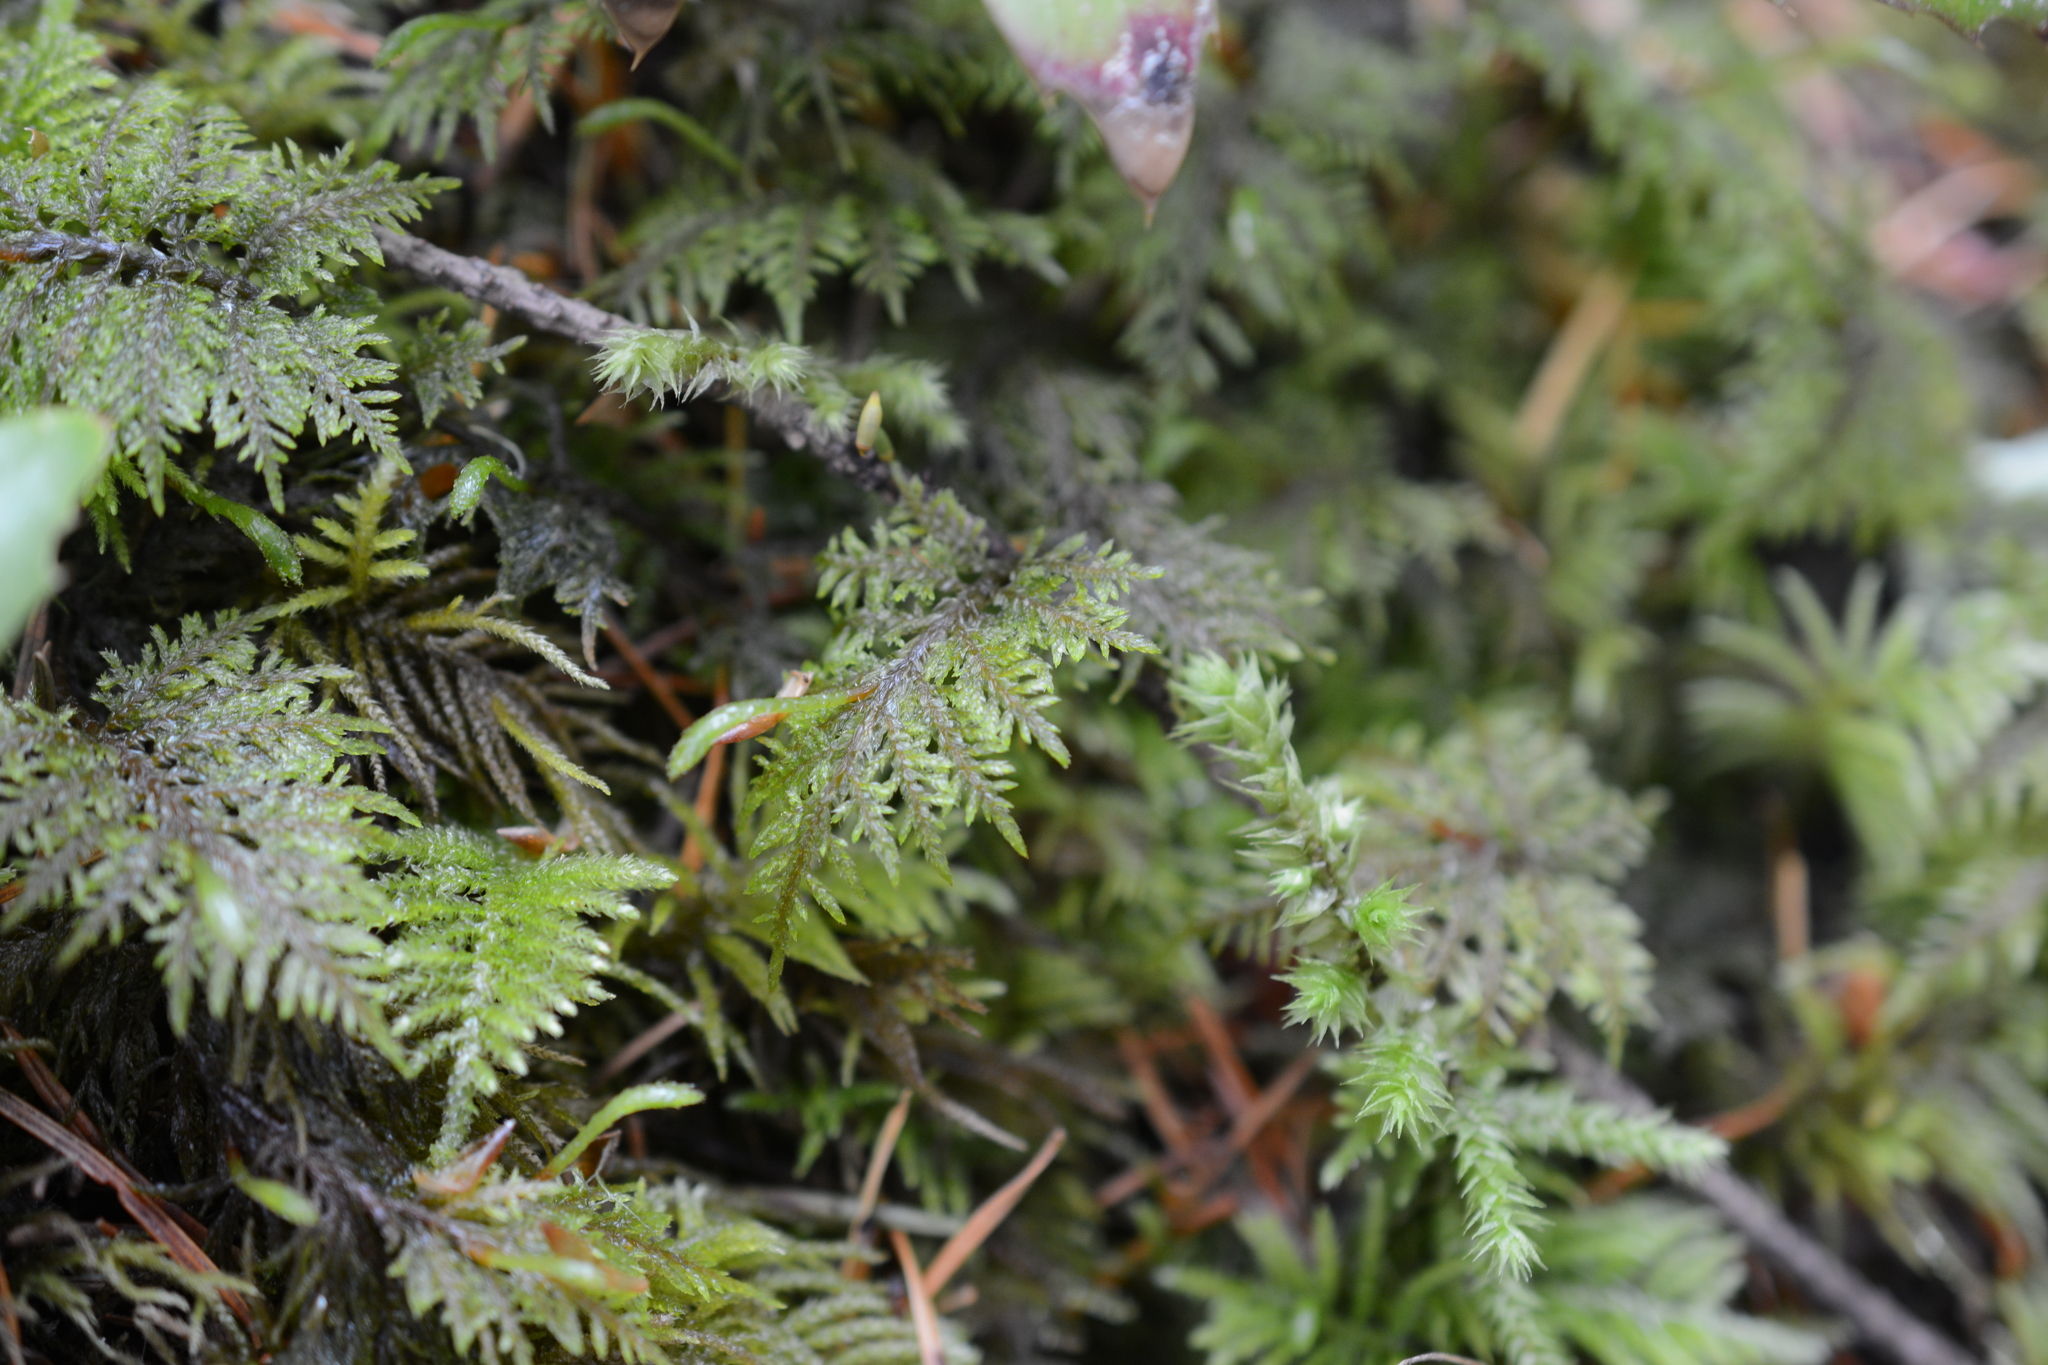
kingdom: Plantae
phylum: Bryophyta
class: Bryopsida
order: Hypnales
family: Hylocomiaceae
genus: Hylocomium
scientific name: Hylocomium splendens
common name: Stairstep moss
